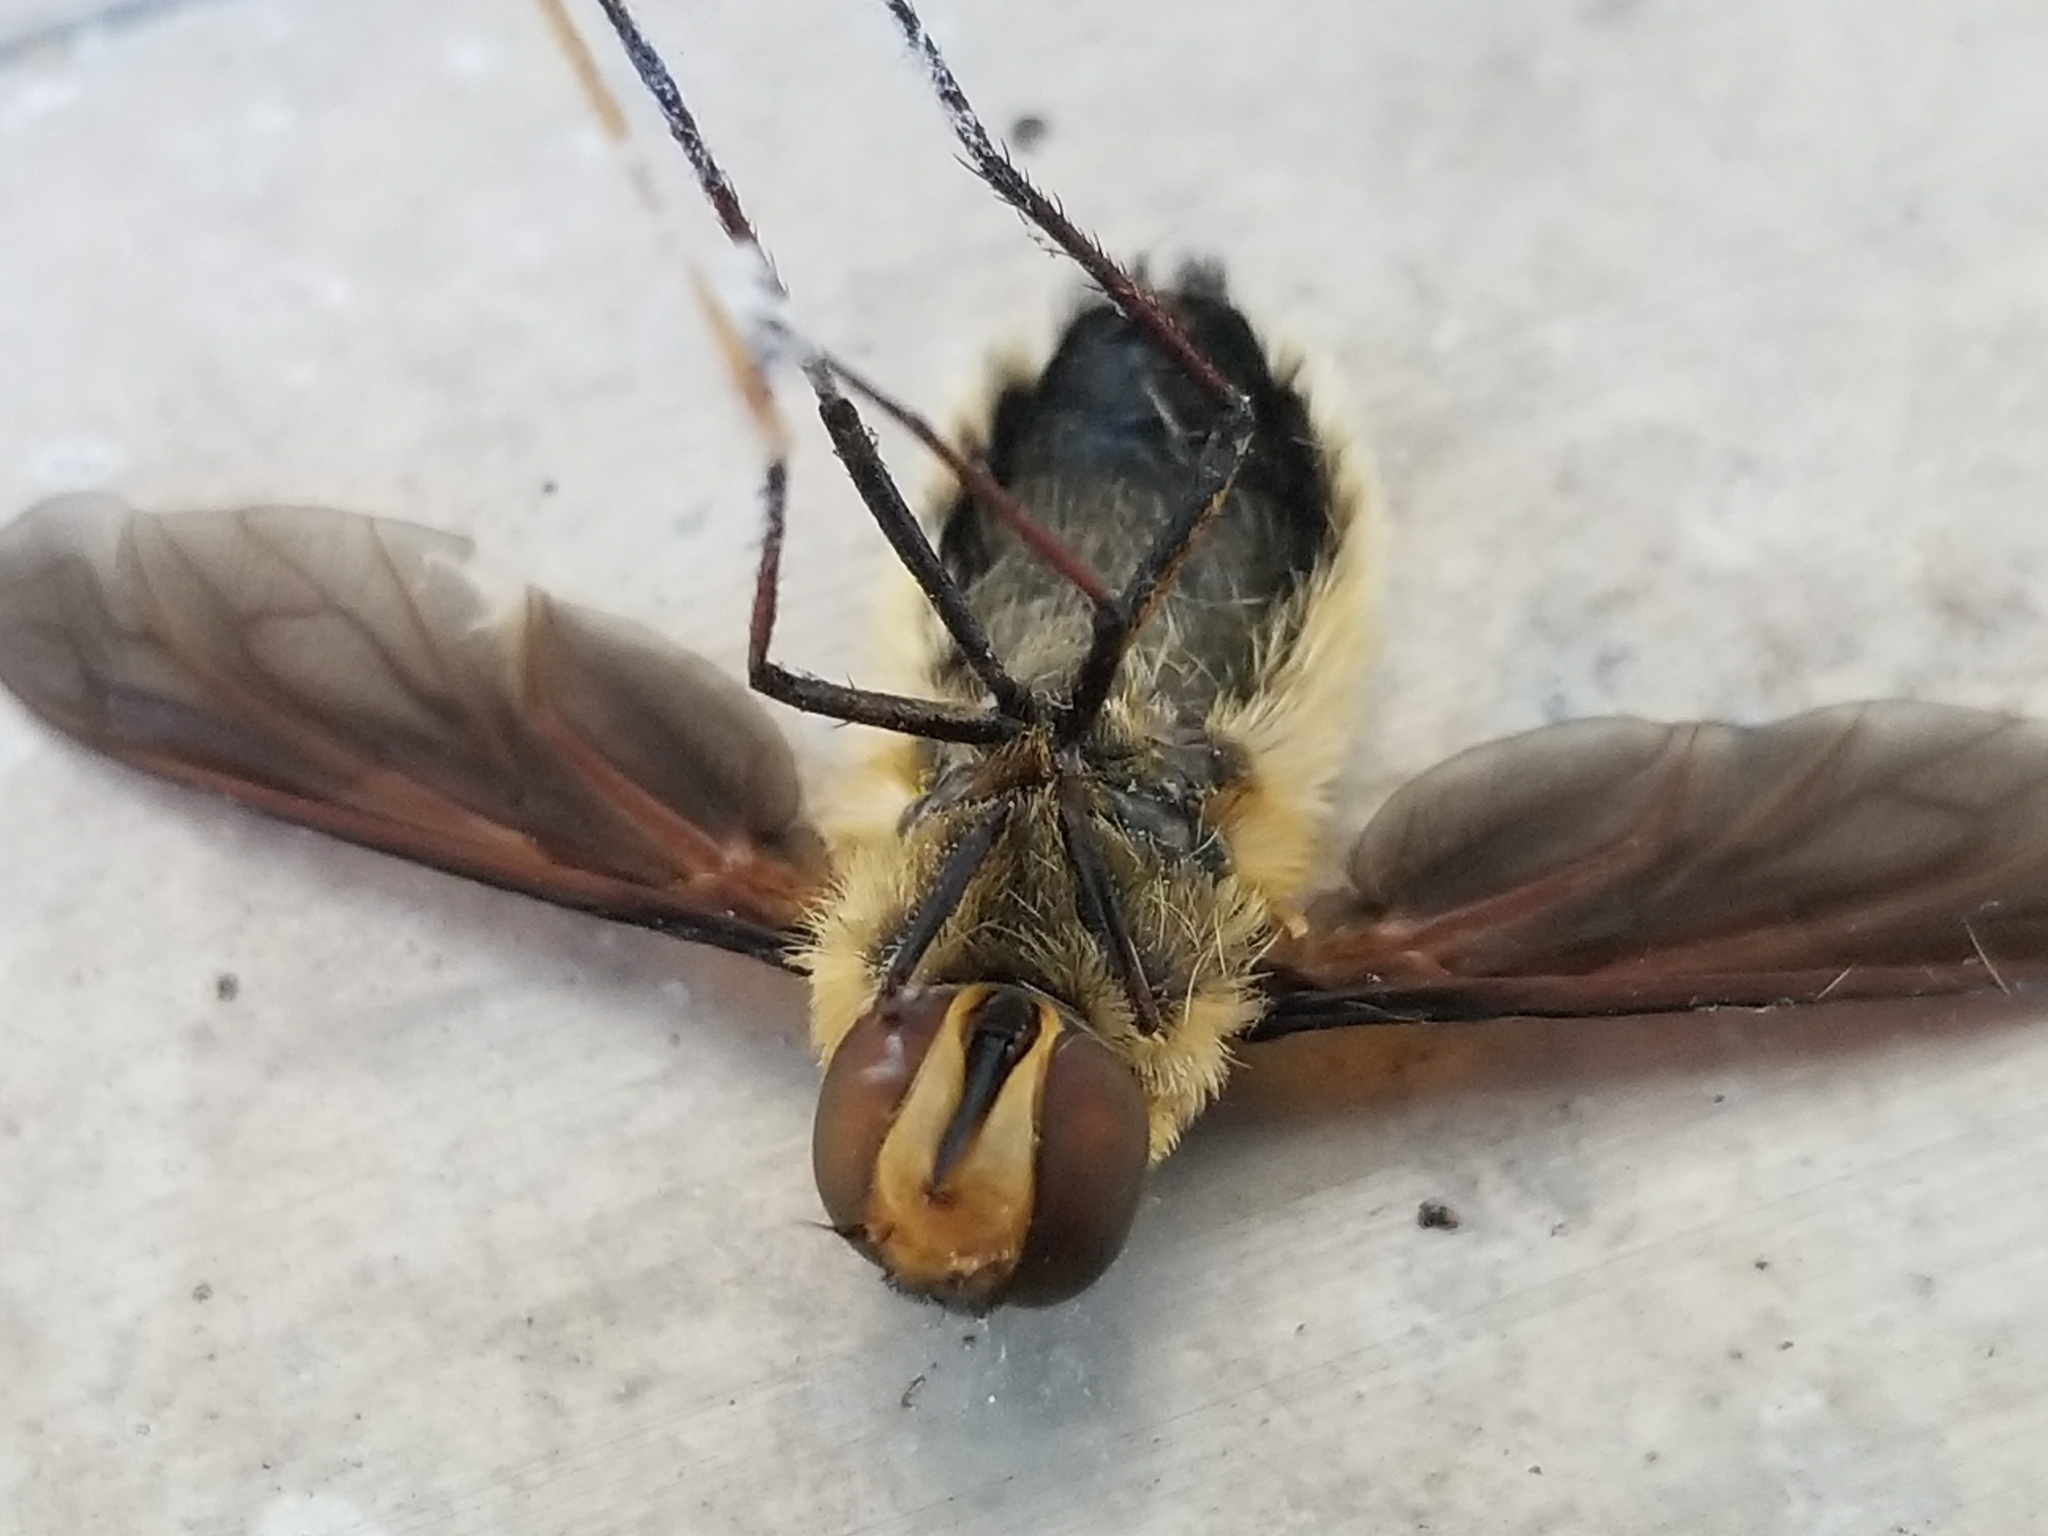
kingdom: Animalia
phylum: Arthropoda
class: Insecta
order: Diptera
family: Bombyliidae
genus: Poecilanthrax
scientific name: Poecilanthrax lucifer
